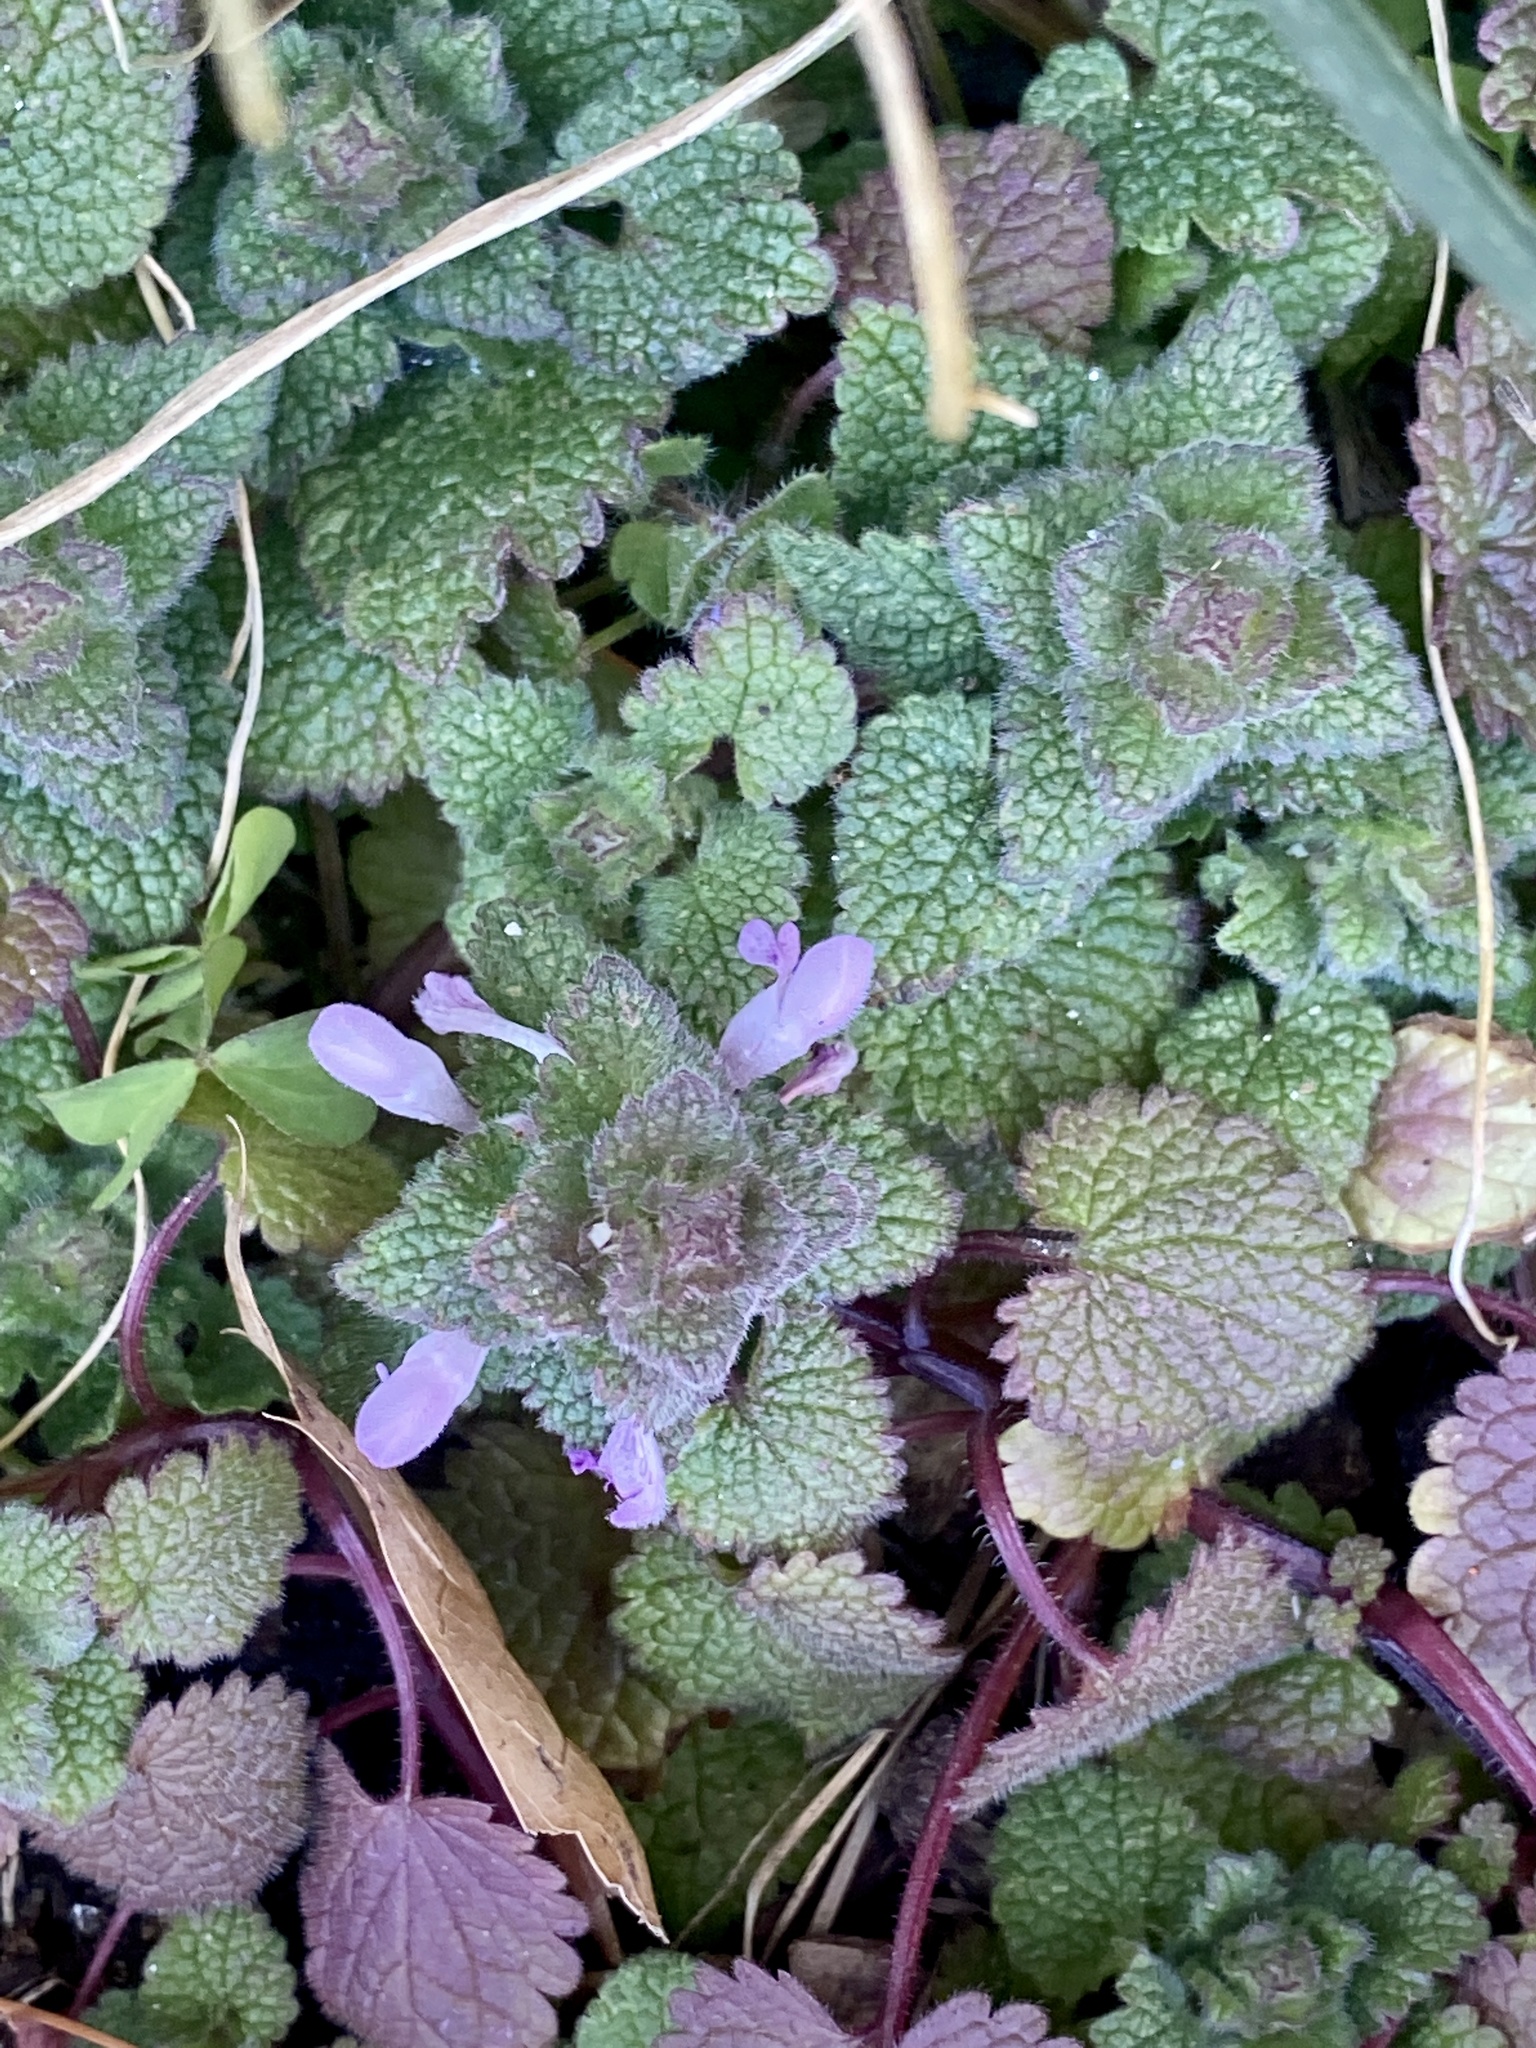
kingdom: Plantae
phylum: Tracheophyta
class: Magnoliopsida
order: Lamiales
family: Lamiaceae
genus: Lamium
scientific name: Lamium purpureum
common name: Red dead-nettle
